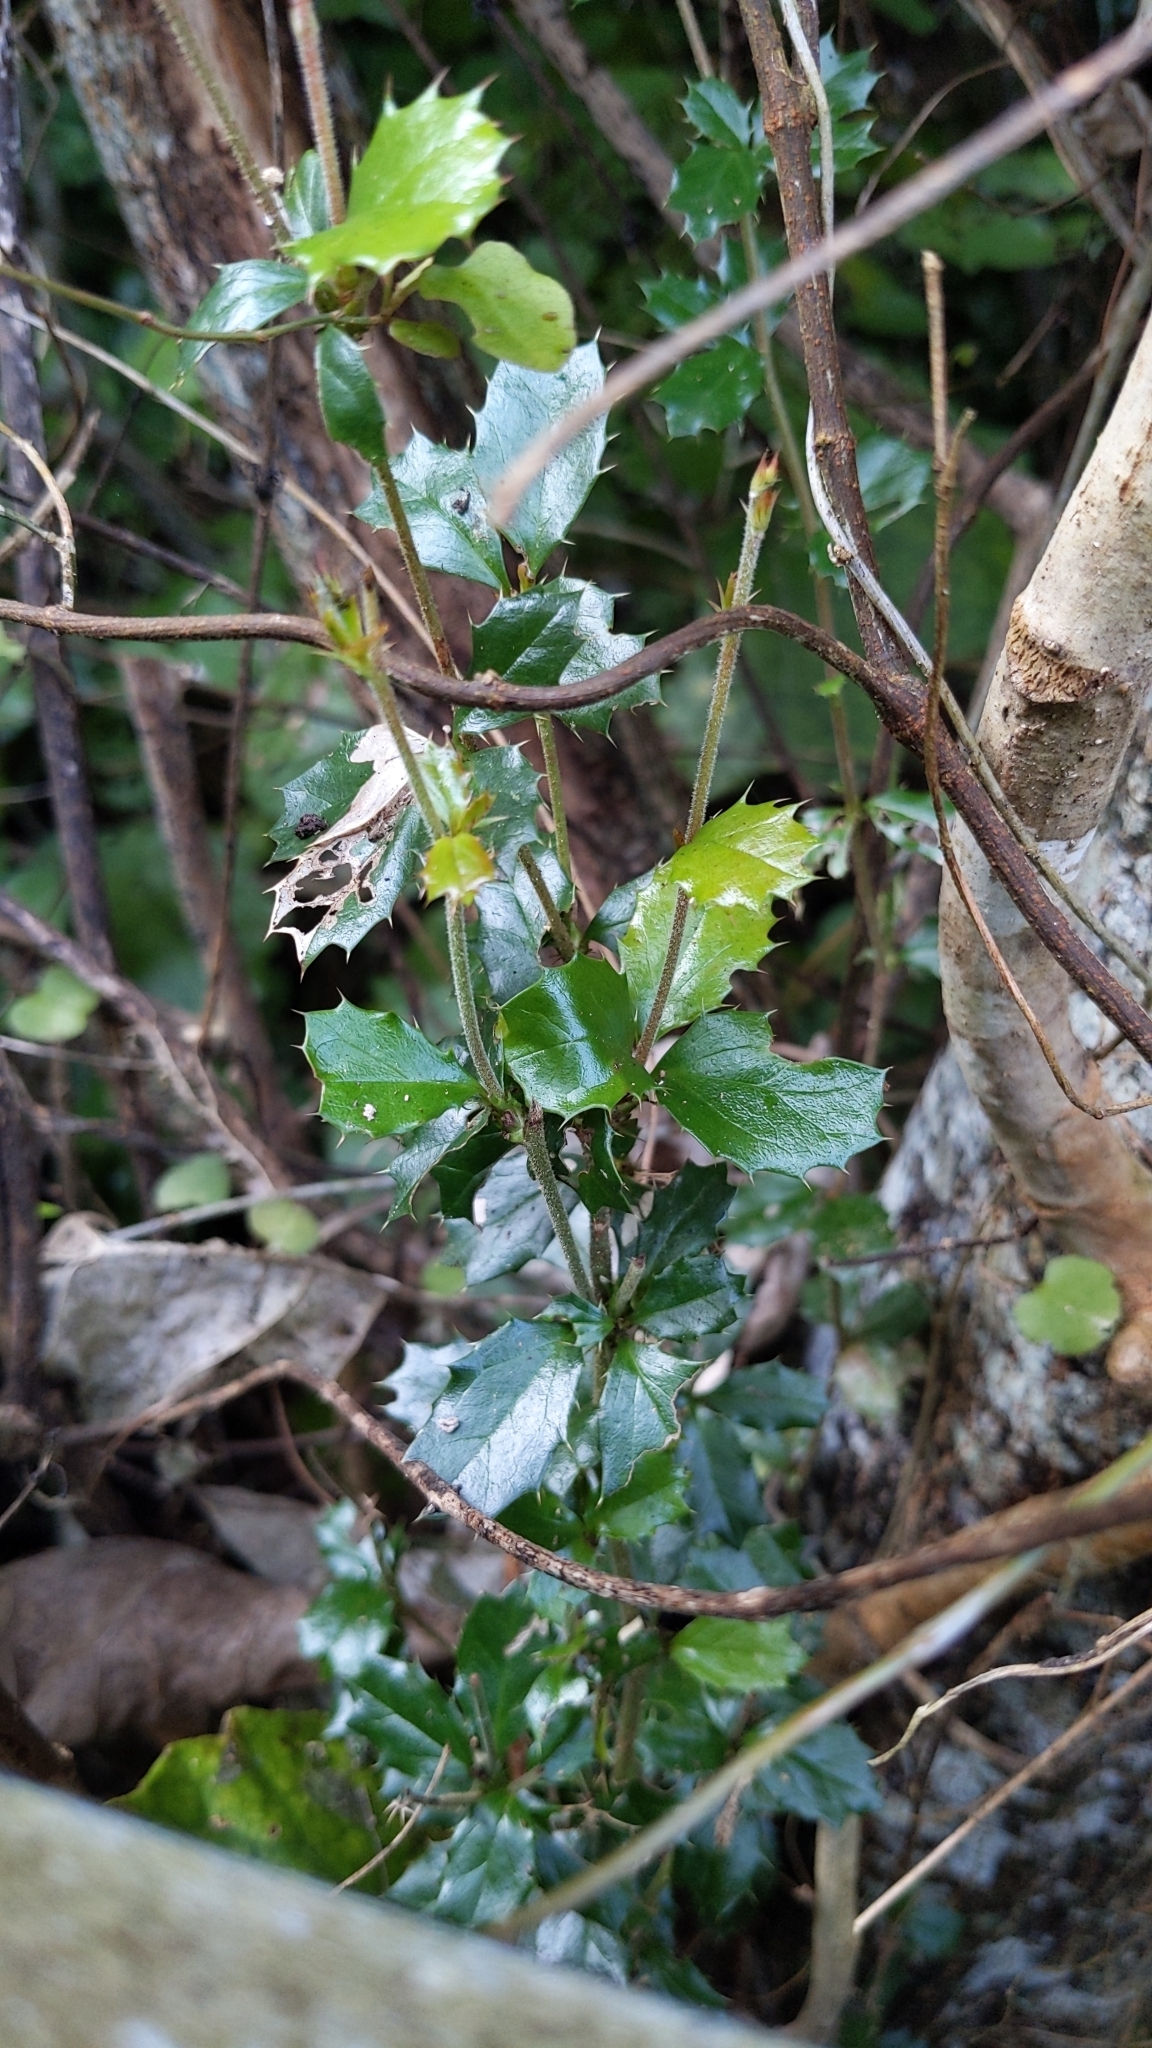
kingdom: Plantae
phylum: Tracheophyta
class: Magnoliopsida
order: Ranunculales
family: Berberidaceae
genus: Berberis
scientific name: Berberis darwinii
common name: Darwin's barberry
